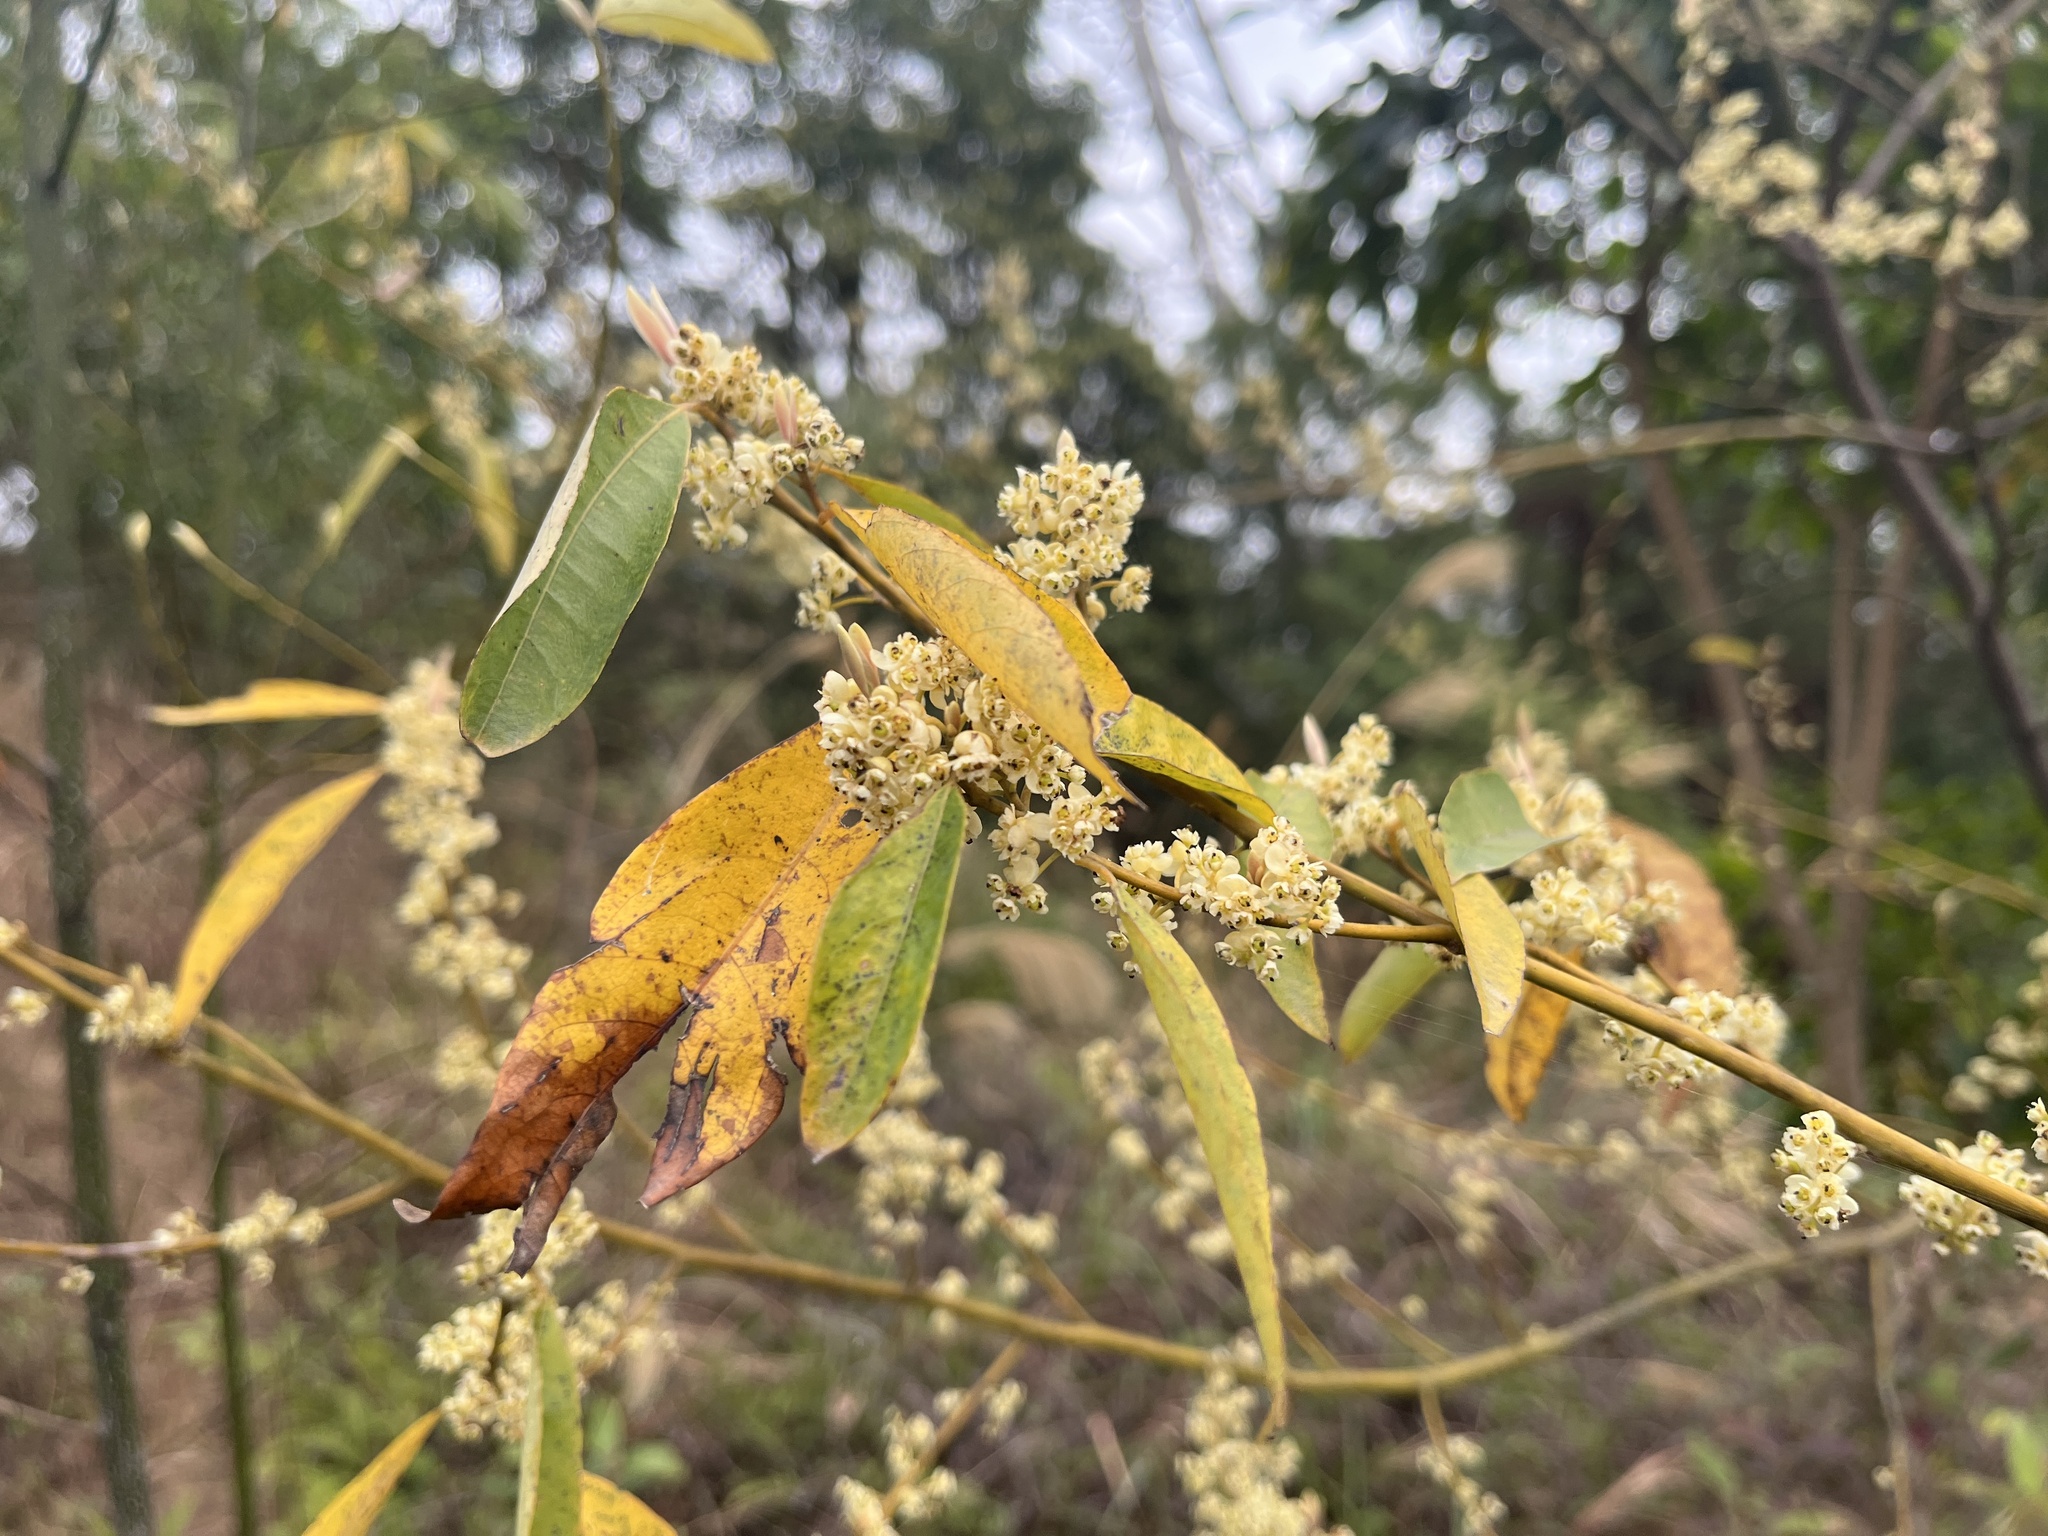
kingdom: Plantae
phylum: Tracheophyta
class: Magnoliopsida
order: Laurales
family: Lauraceae
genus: Litsea
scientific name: Litsea cubeba
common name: Mountain-pepper
